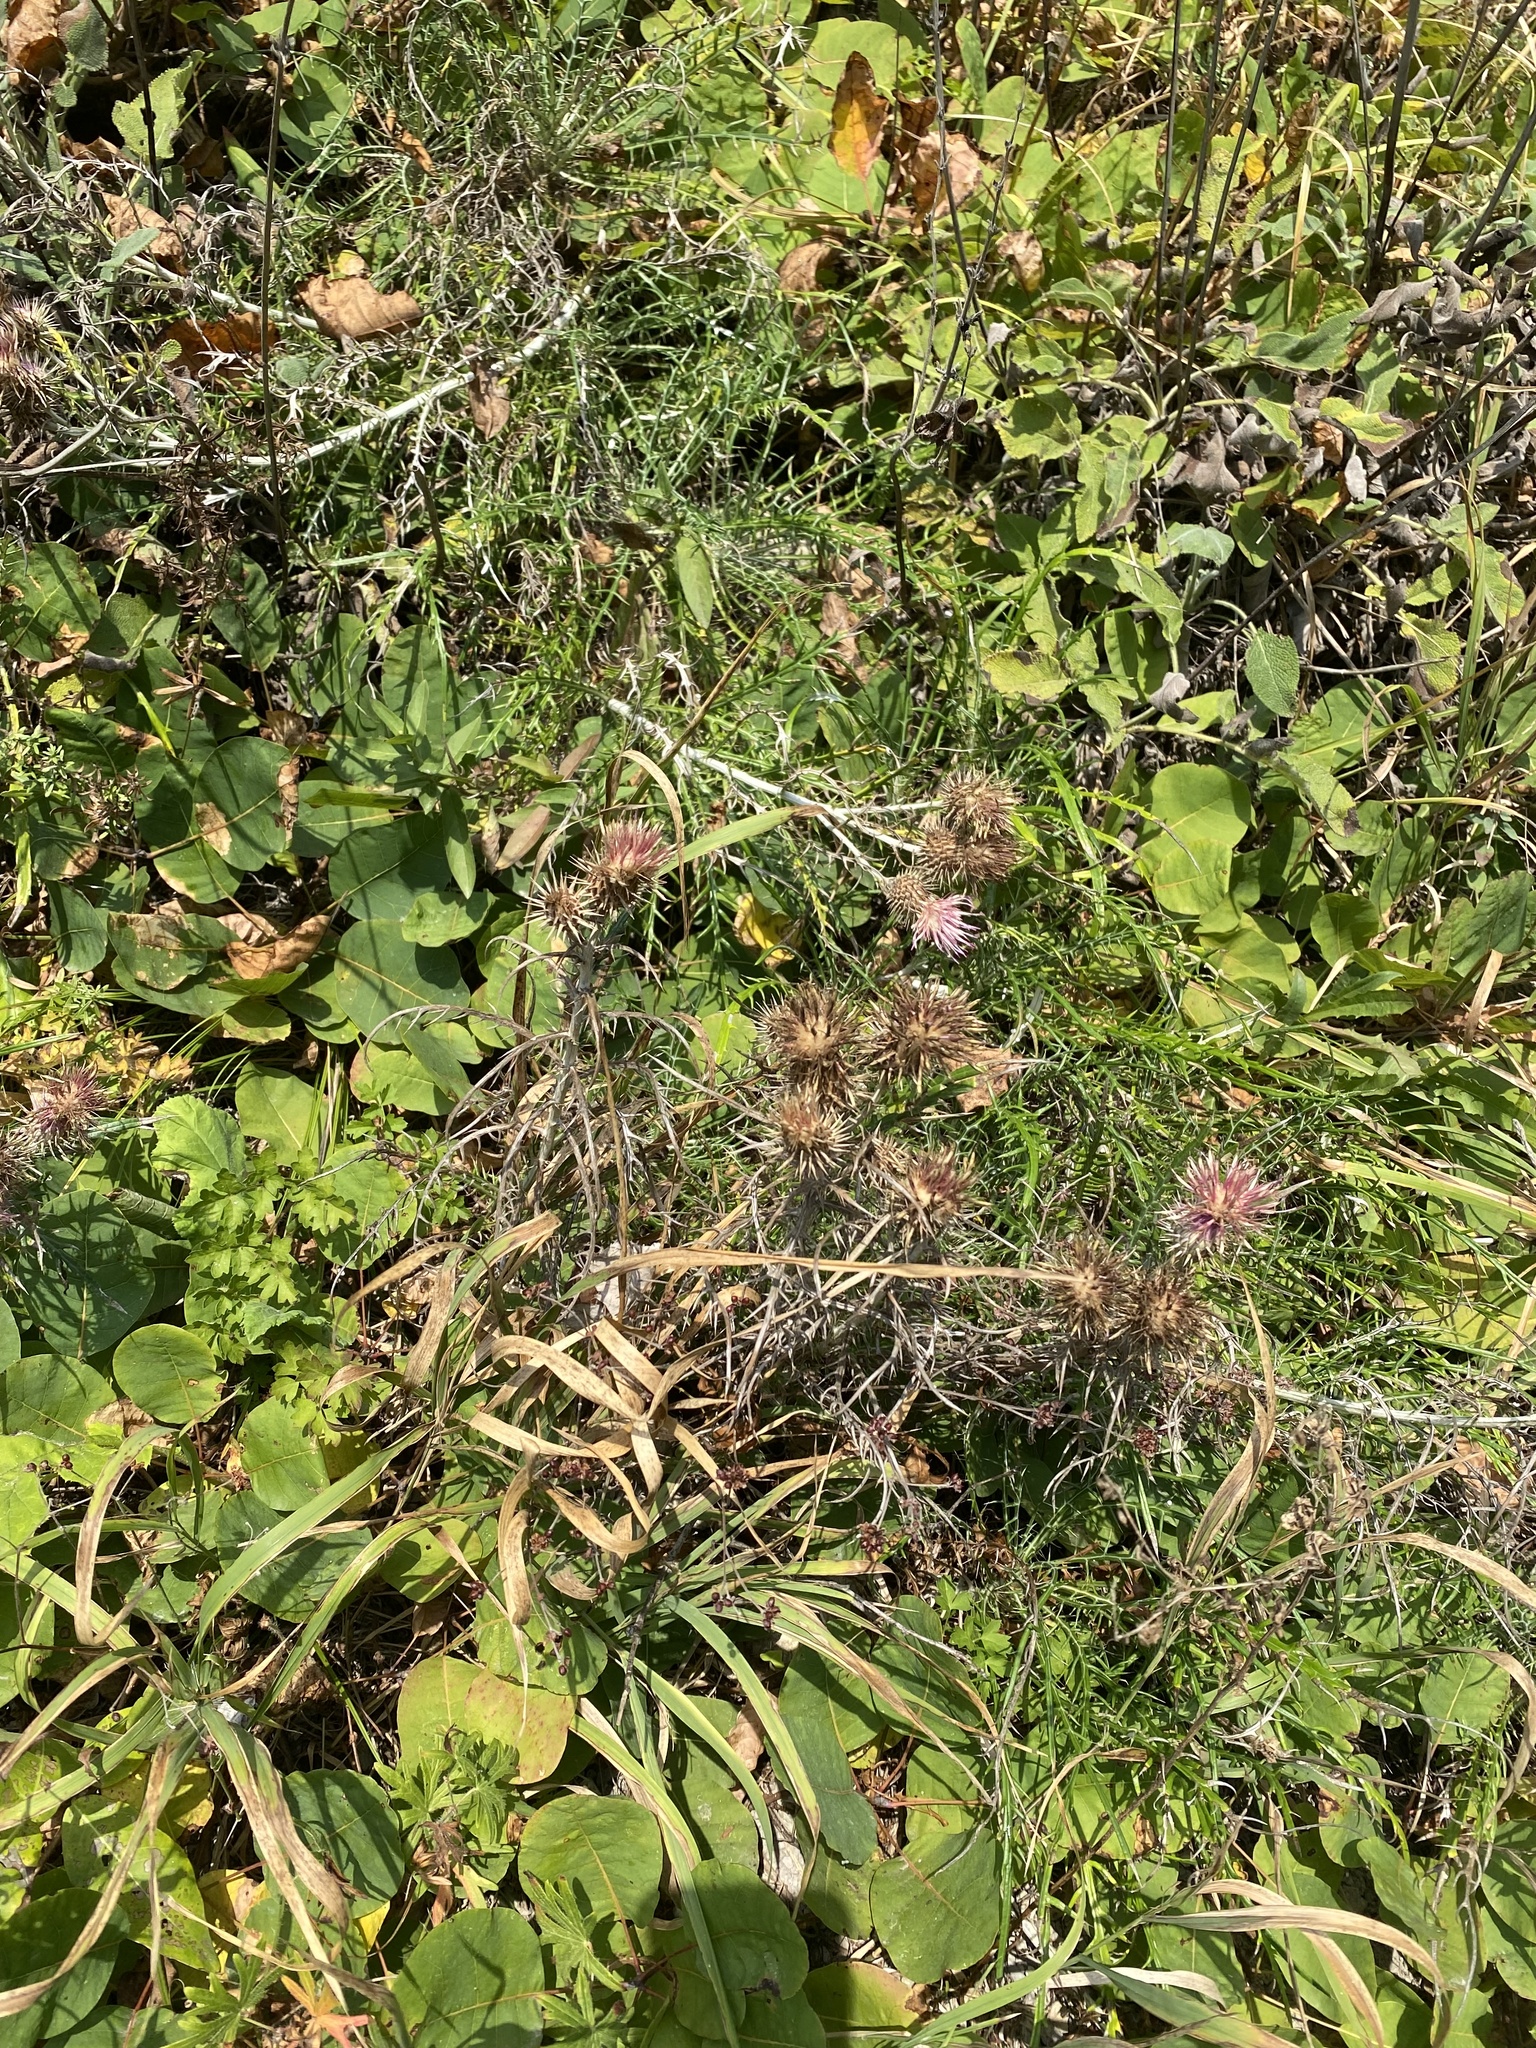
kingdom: Plantae
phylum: Tracheophyta
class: Magnoliopsida
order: Asterales
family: Asteraceae
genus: Ptilostemon
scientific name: Ptilostemon echinocephalus
